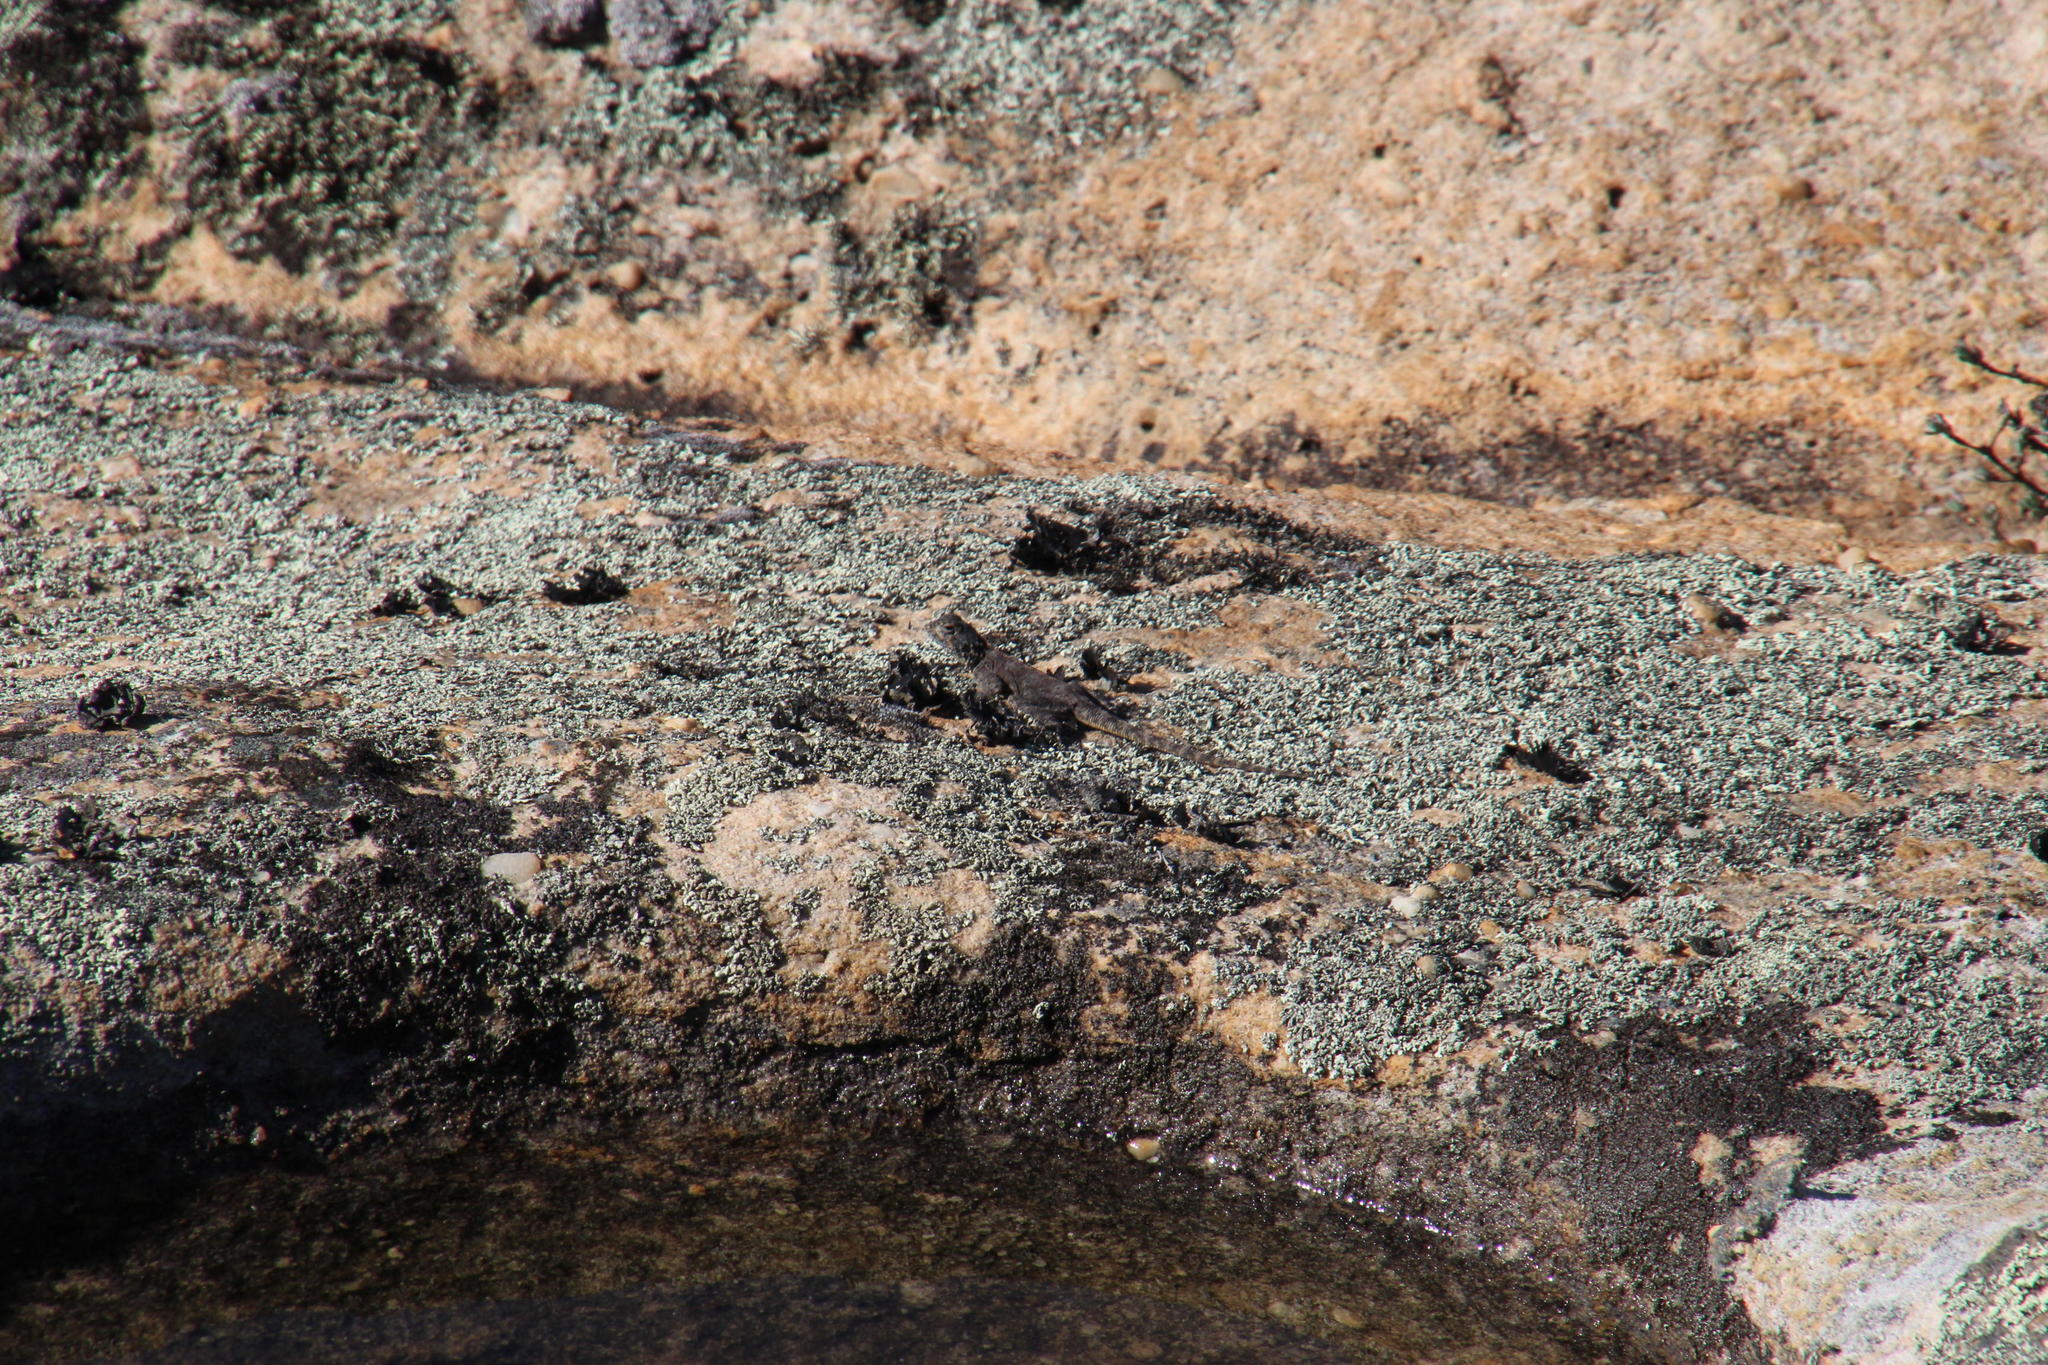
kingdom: Animalia
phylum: Chordata
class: Squamata
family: Agamidae
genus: Agama
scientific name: Agama atra
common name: Southern african rock agama
